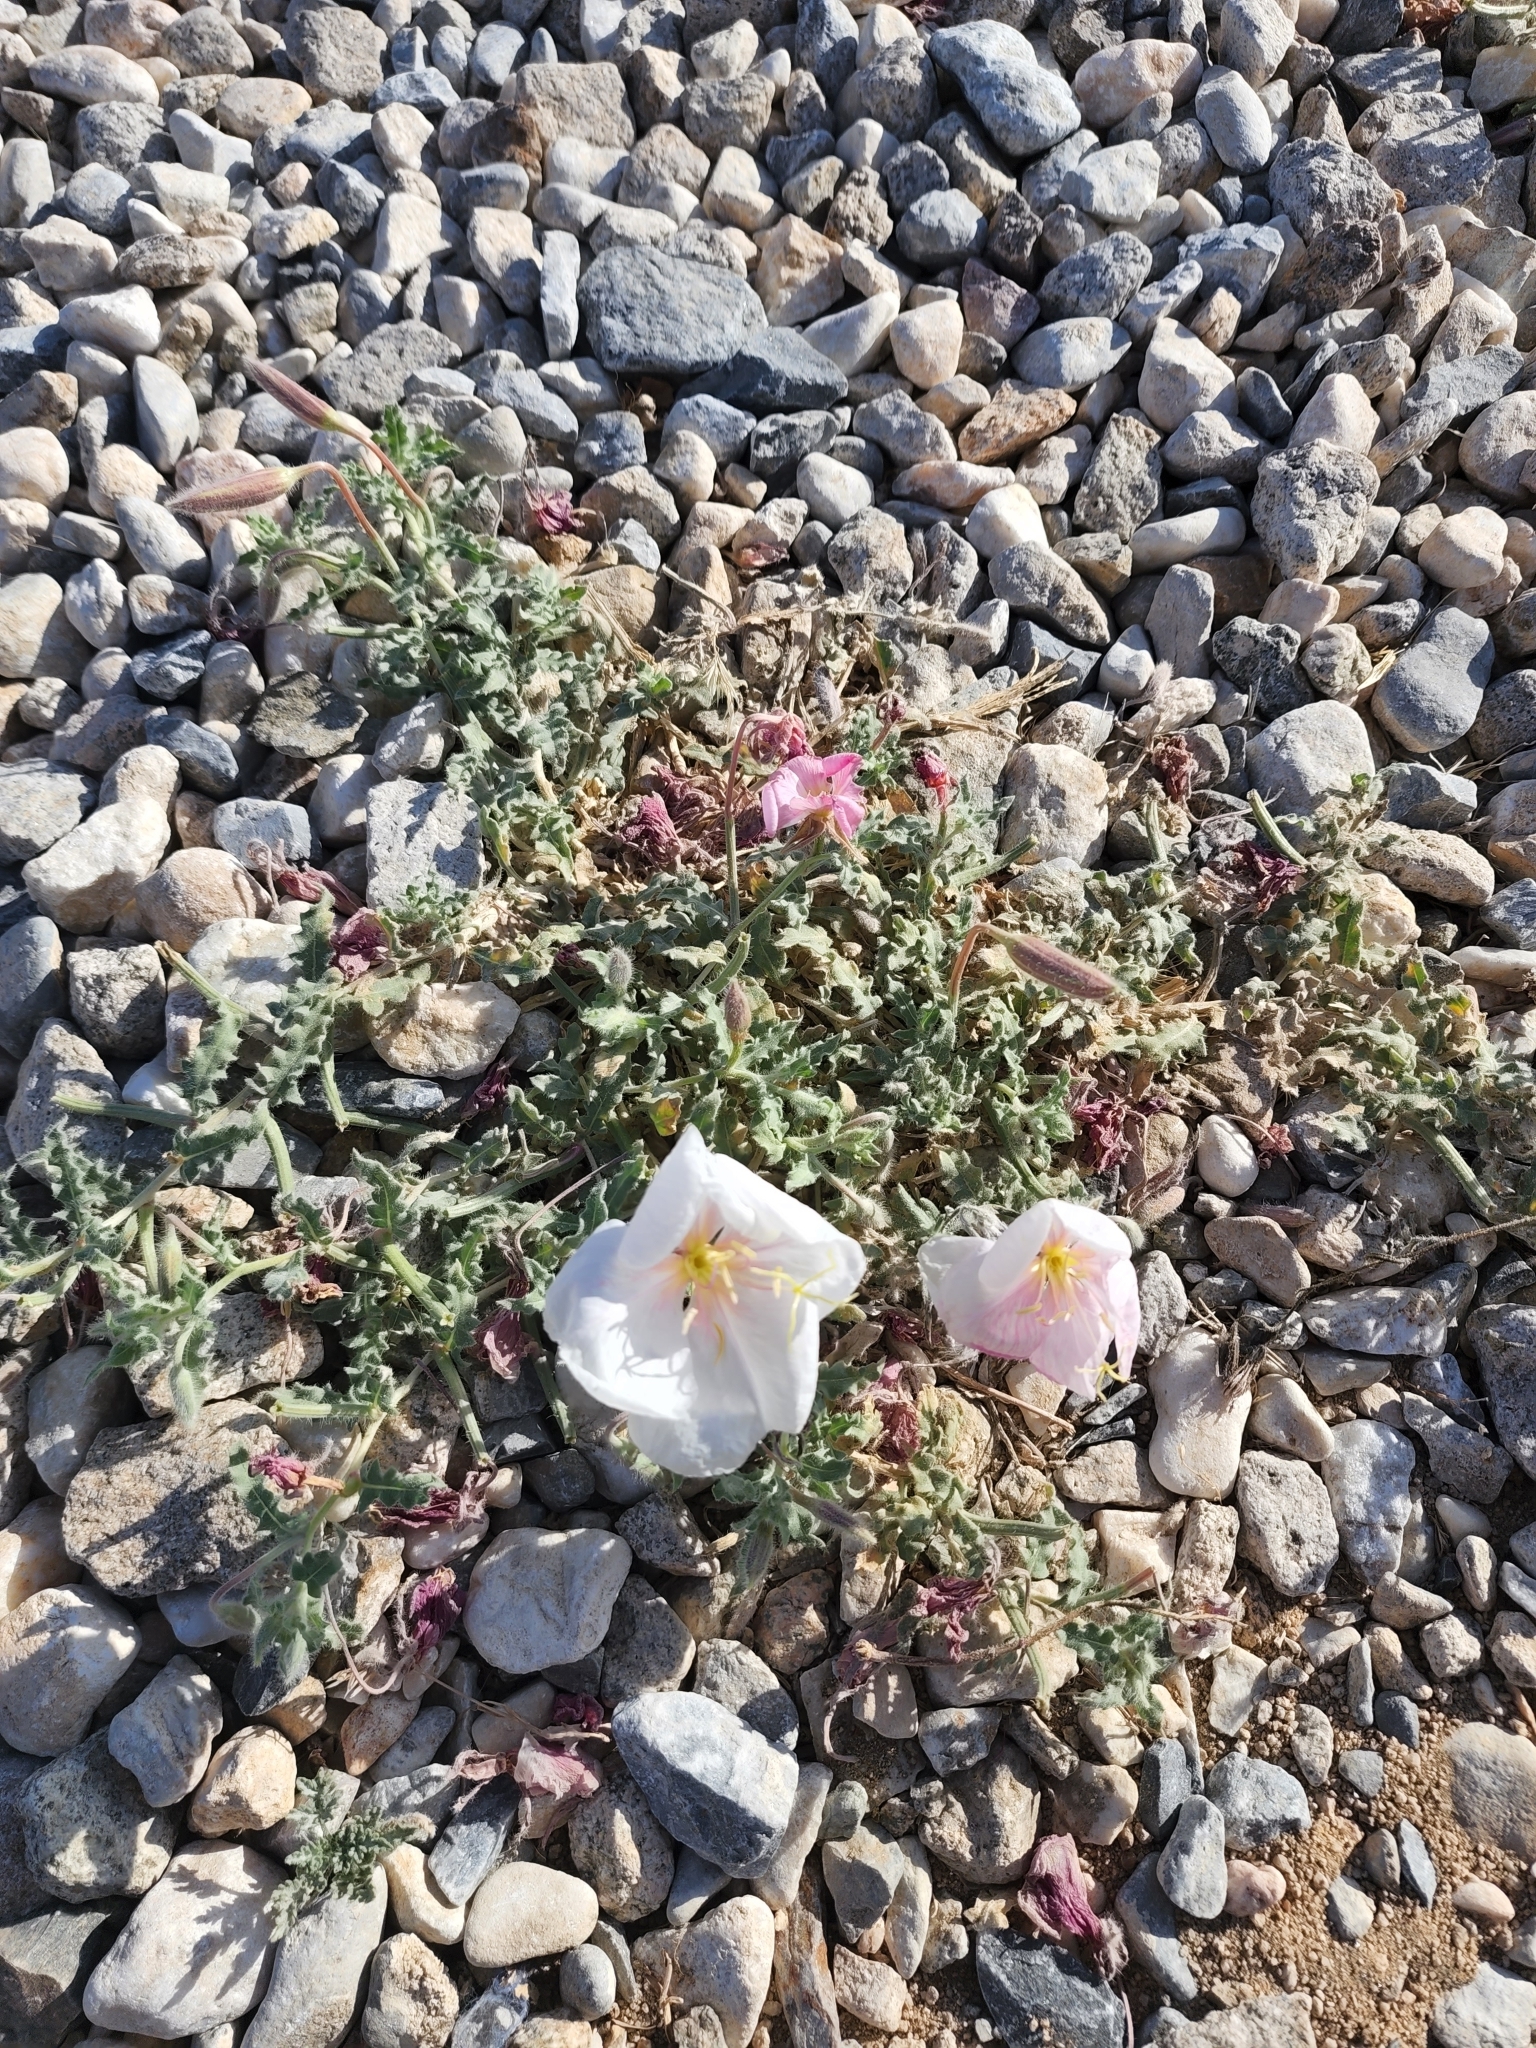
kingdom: Plantae
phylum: Tracheophyta
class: Magnoliopsida
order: Myrtales
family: Onagraceae
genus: Oenothera
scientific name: Oenothera californica
